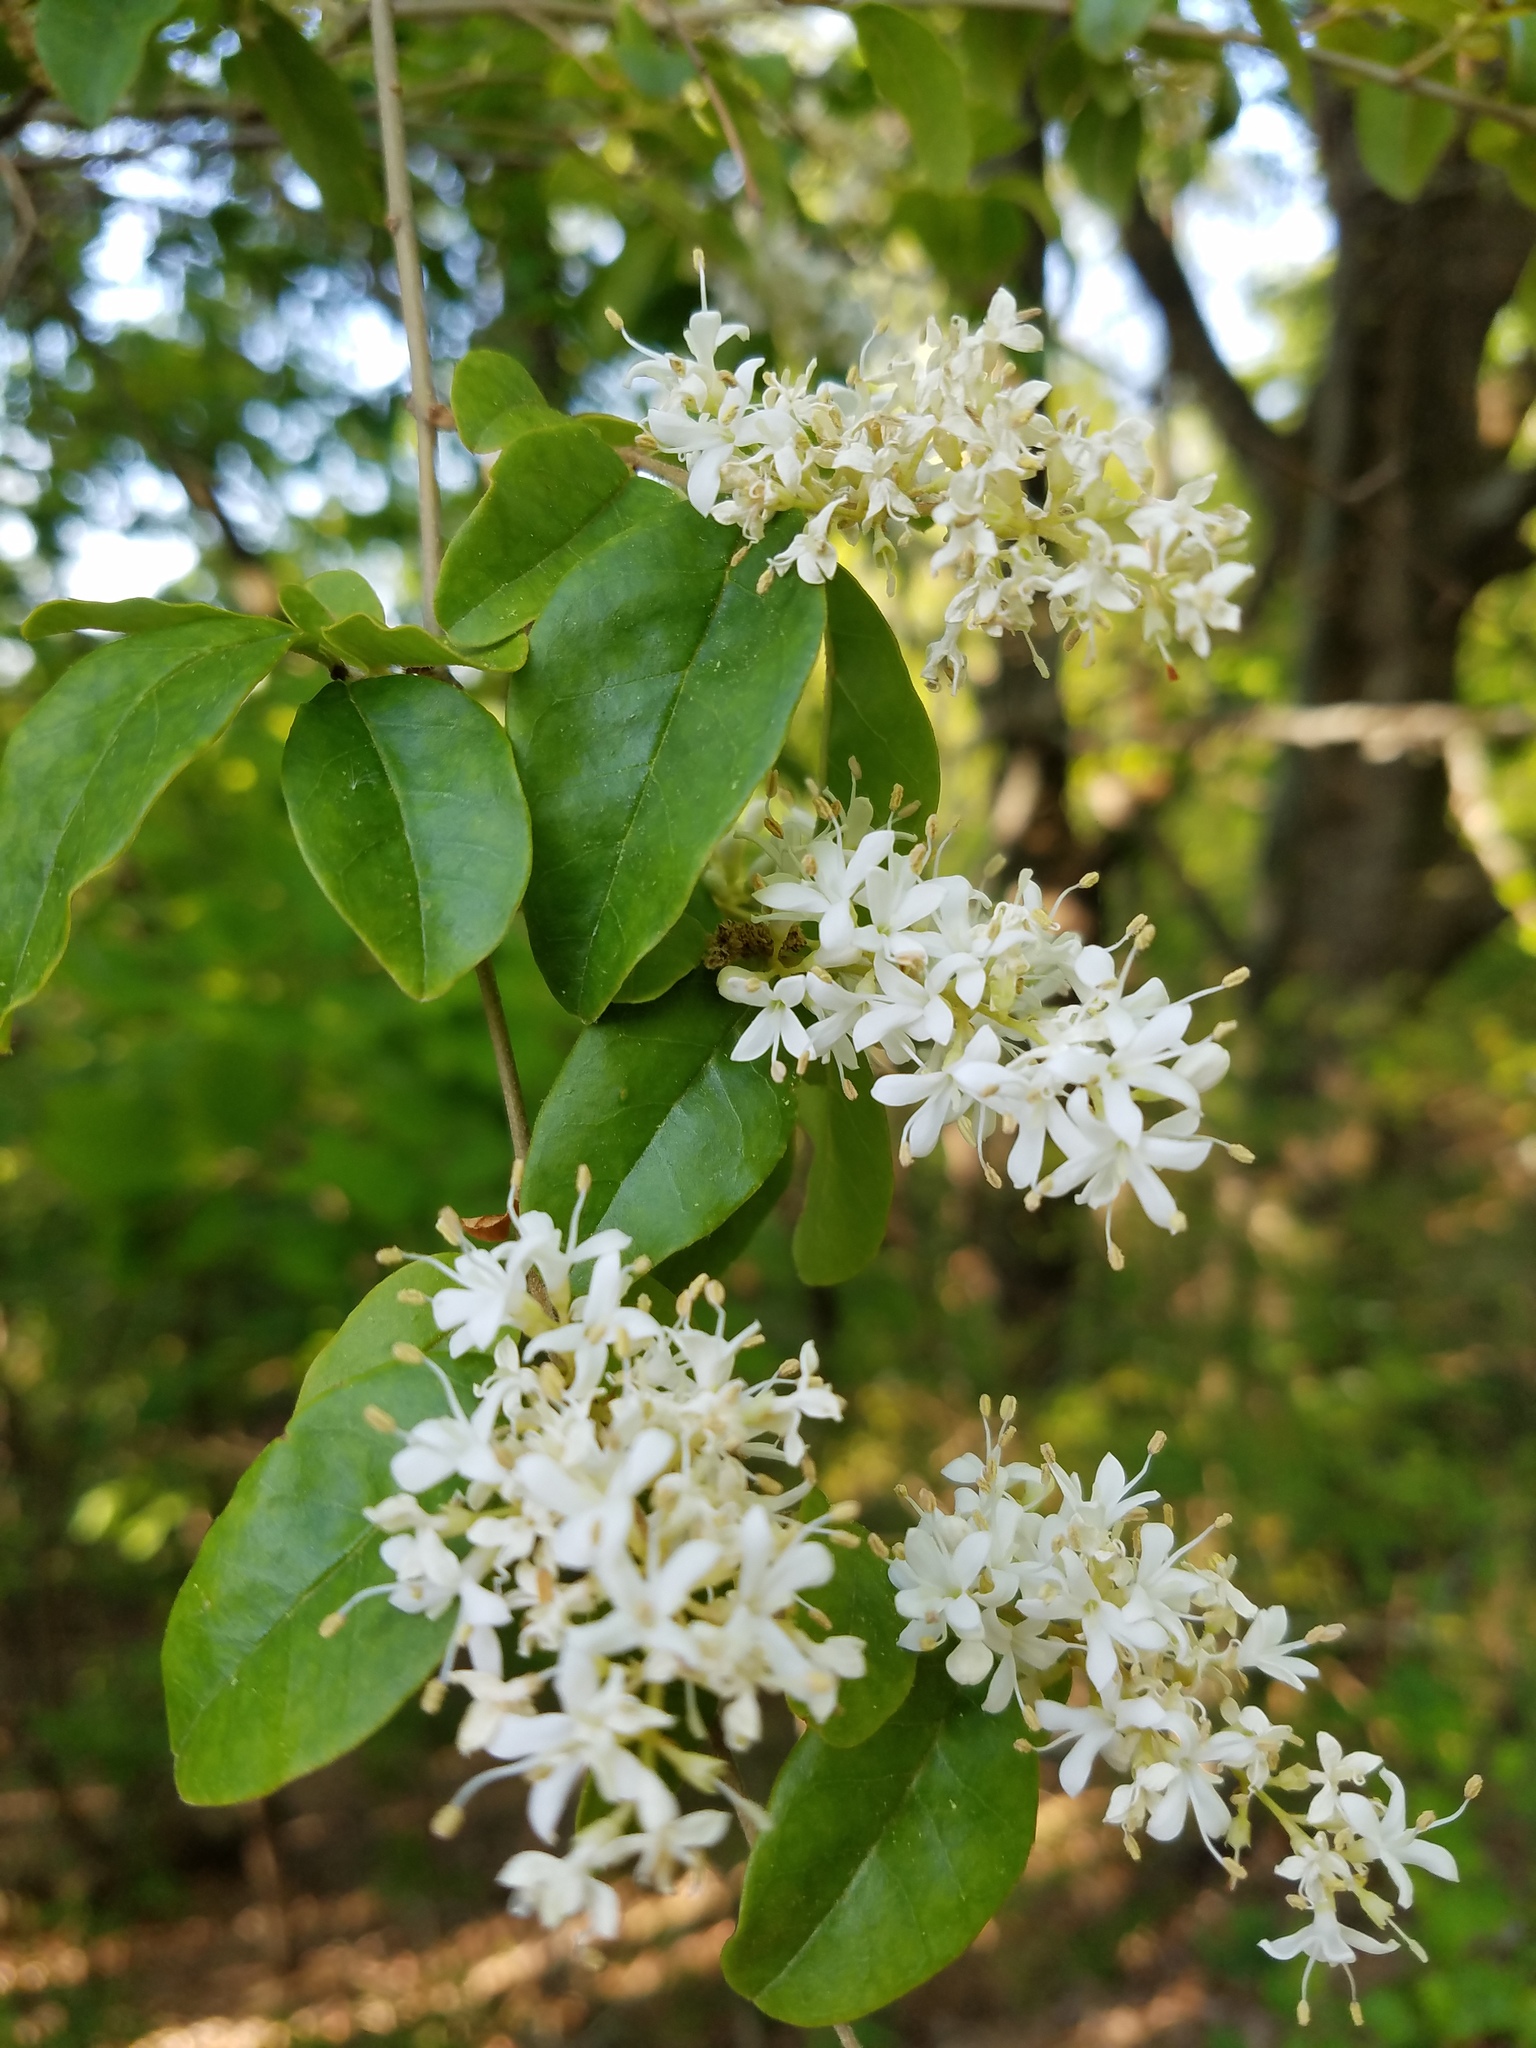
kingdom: Plantae
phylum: Tracheophyta
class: Magnoliopsida
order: Lamiales
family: Oleaceae
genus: Ligustrum
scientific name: Ligustrum sinense
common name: Chinese privet
